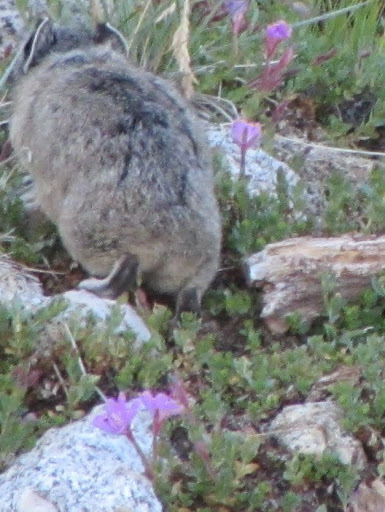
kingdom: Plantae
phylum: Tracheophyta
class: Magnoliopsida
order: Myrtales
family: Onagraceae
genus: Epilobium
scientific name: Epilobium obcordatum
